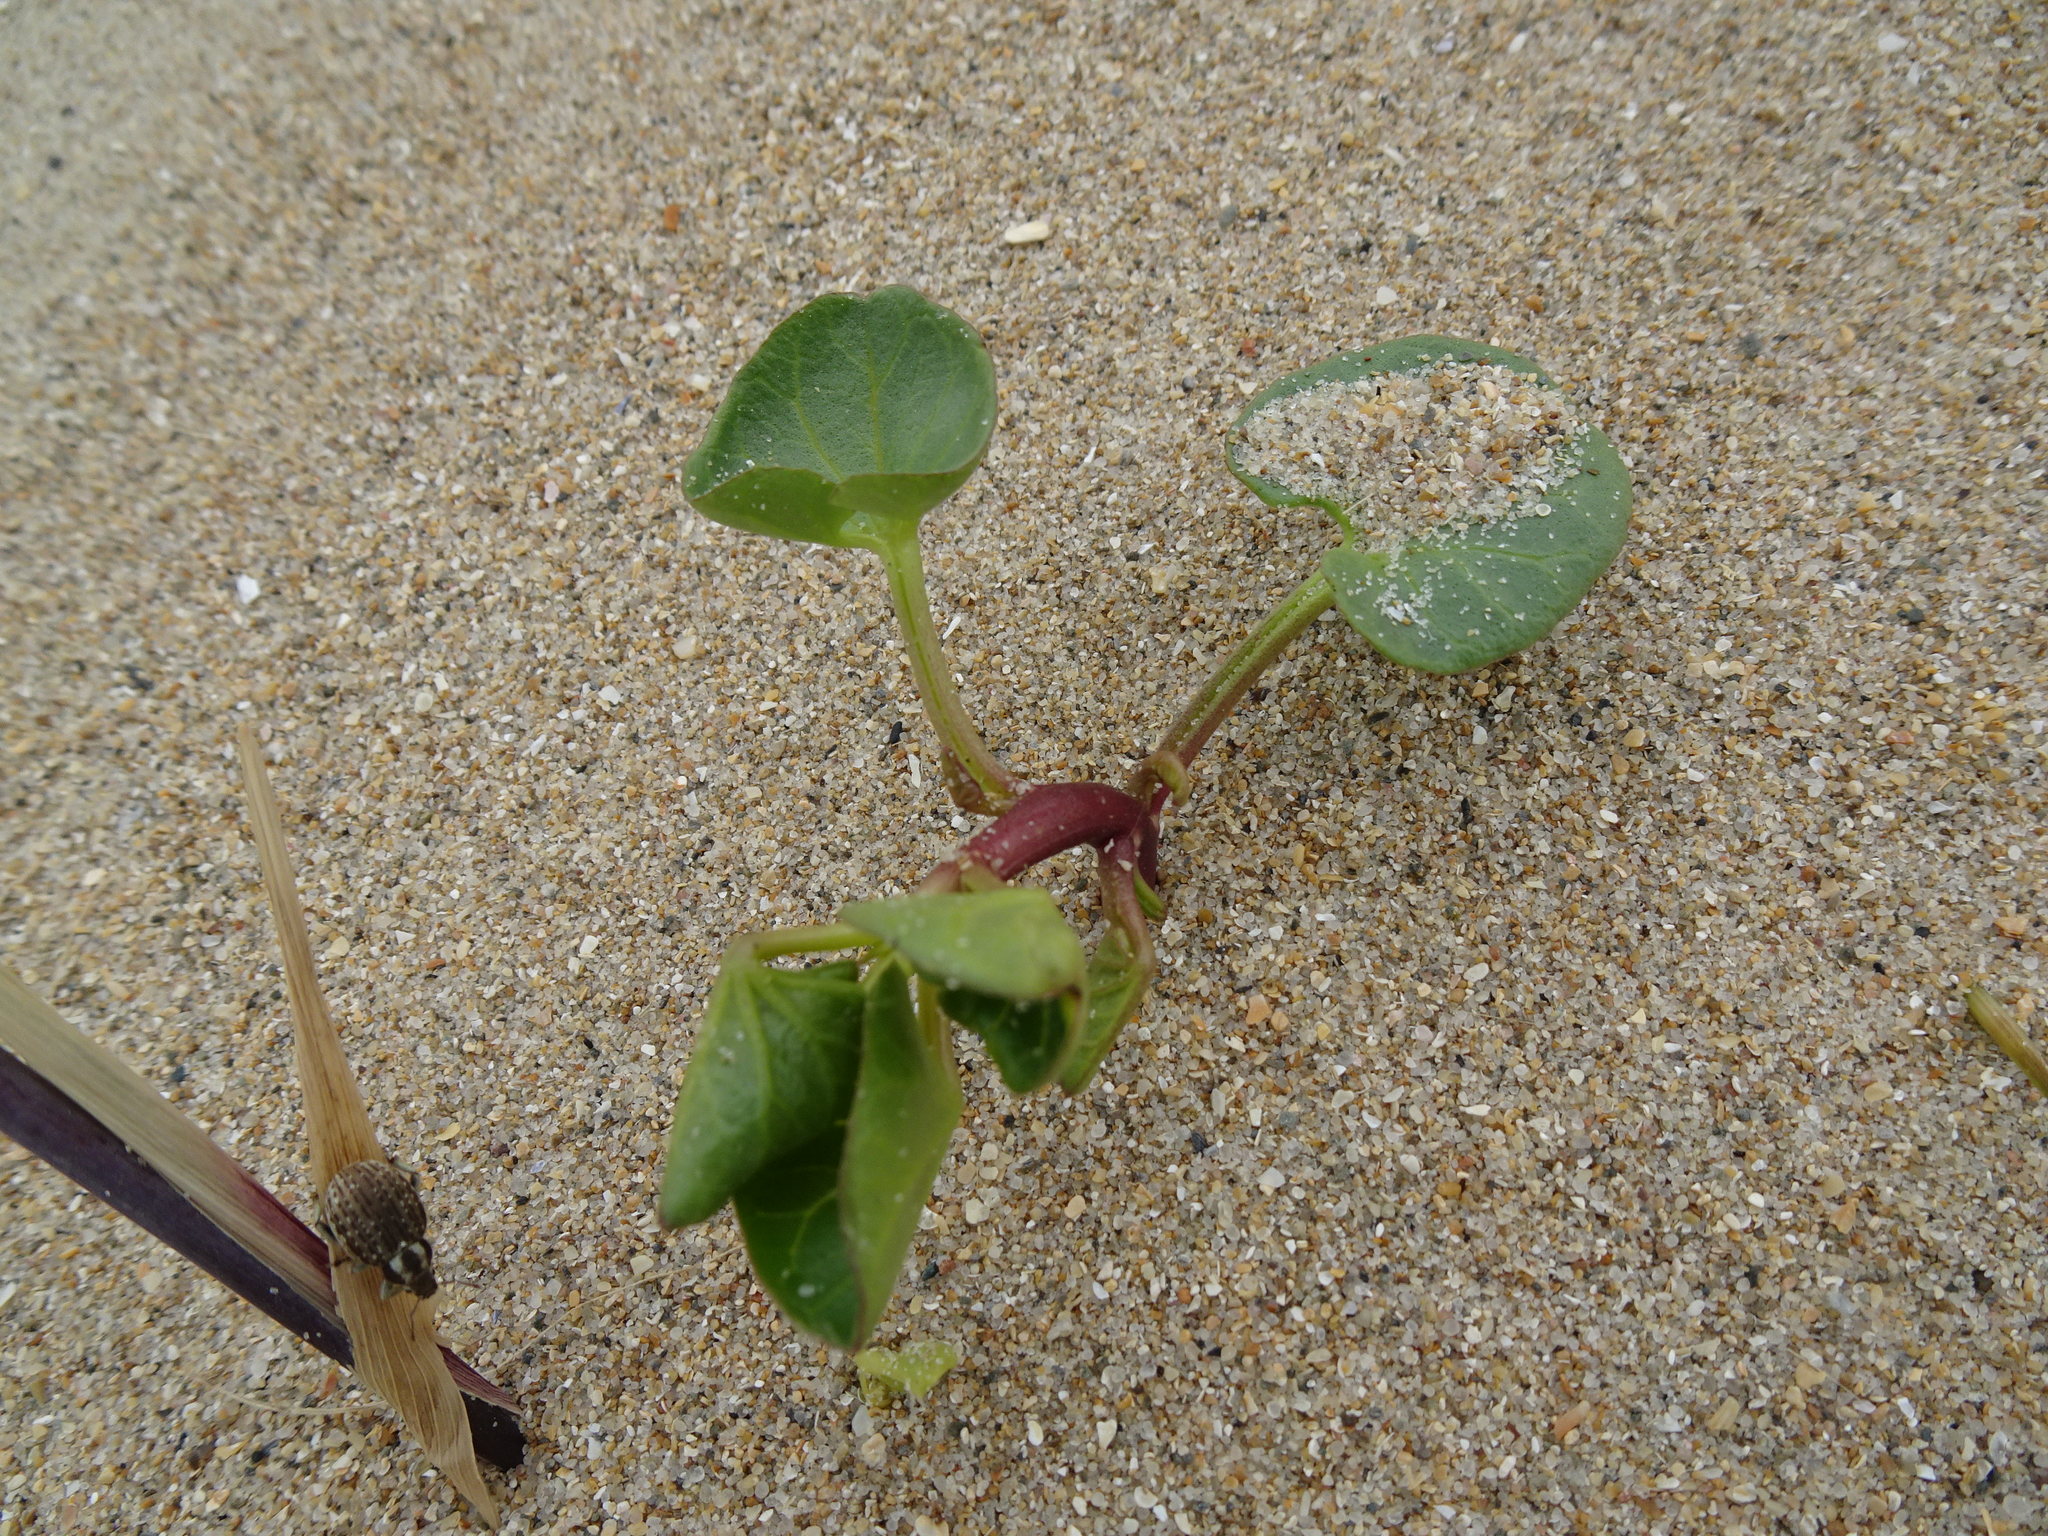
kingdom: Plantae
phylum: Tracheophyta
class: Magnoliopsida
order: Solanales
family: Convolvulaceae
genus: Calystegia
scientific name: Calystegia soldanella
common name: Sea bindweed
